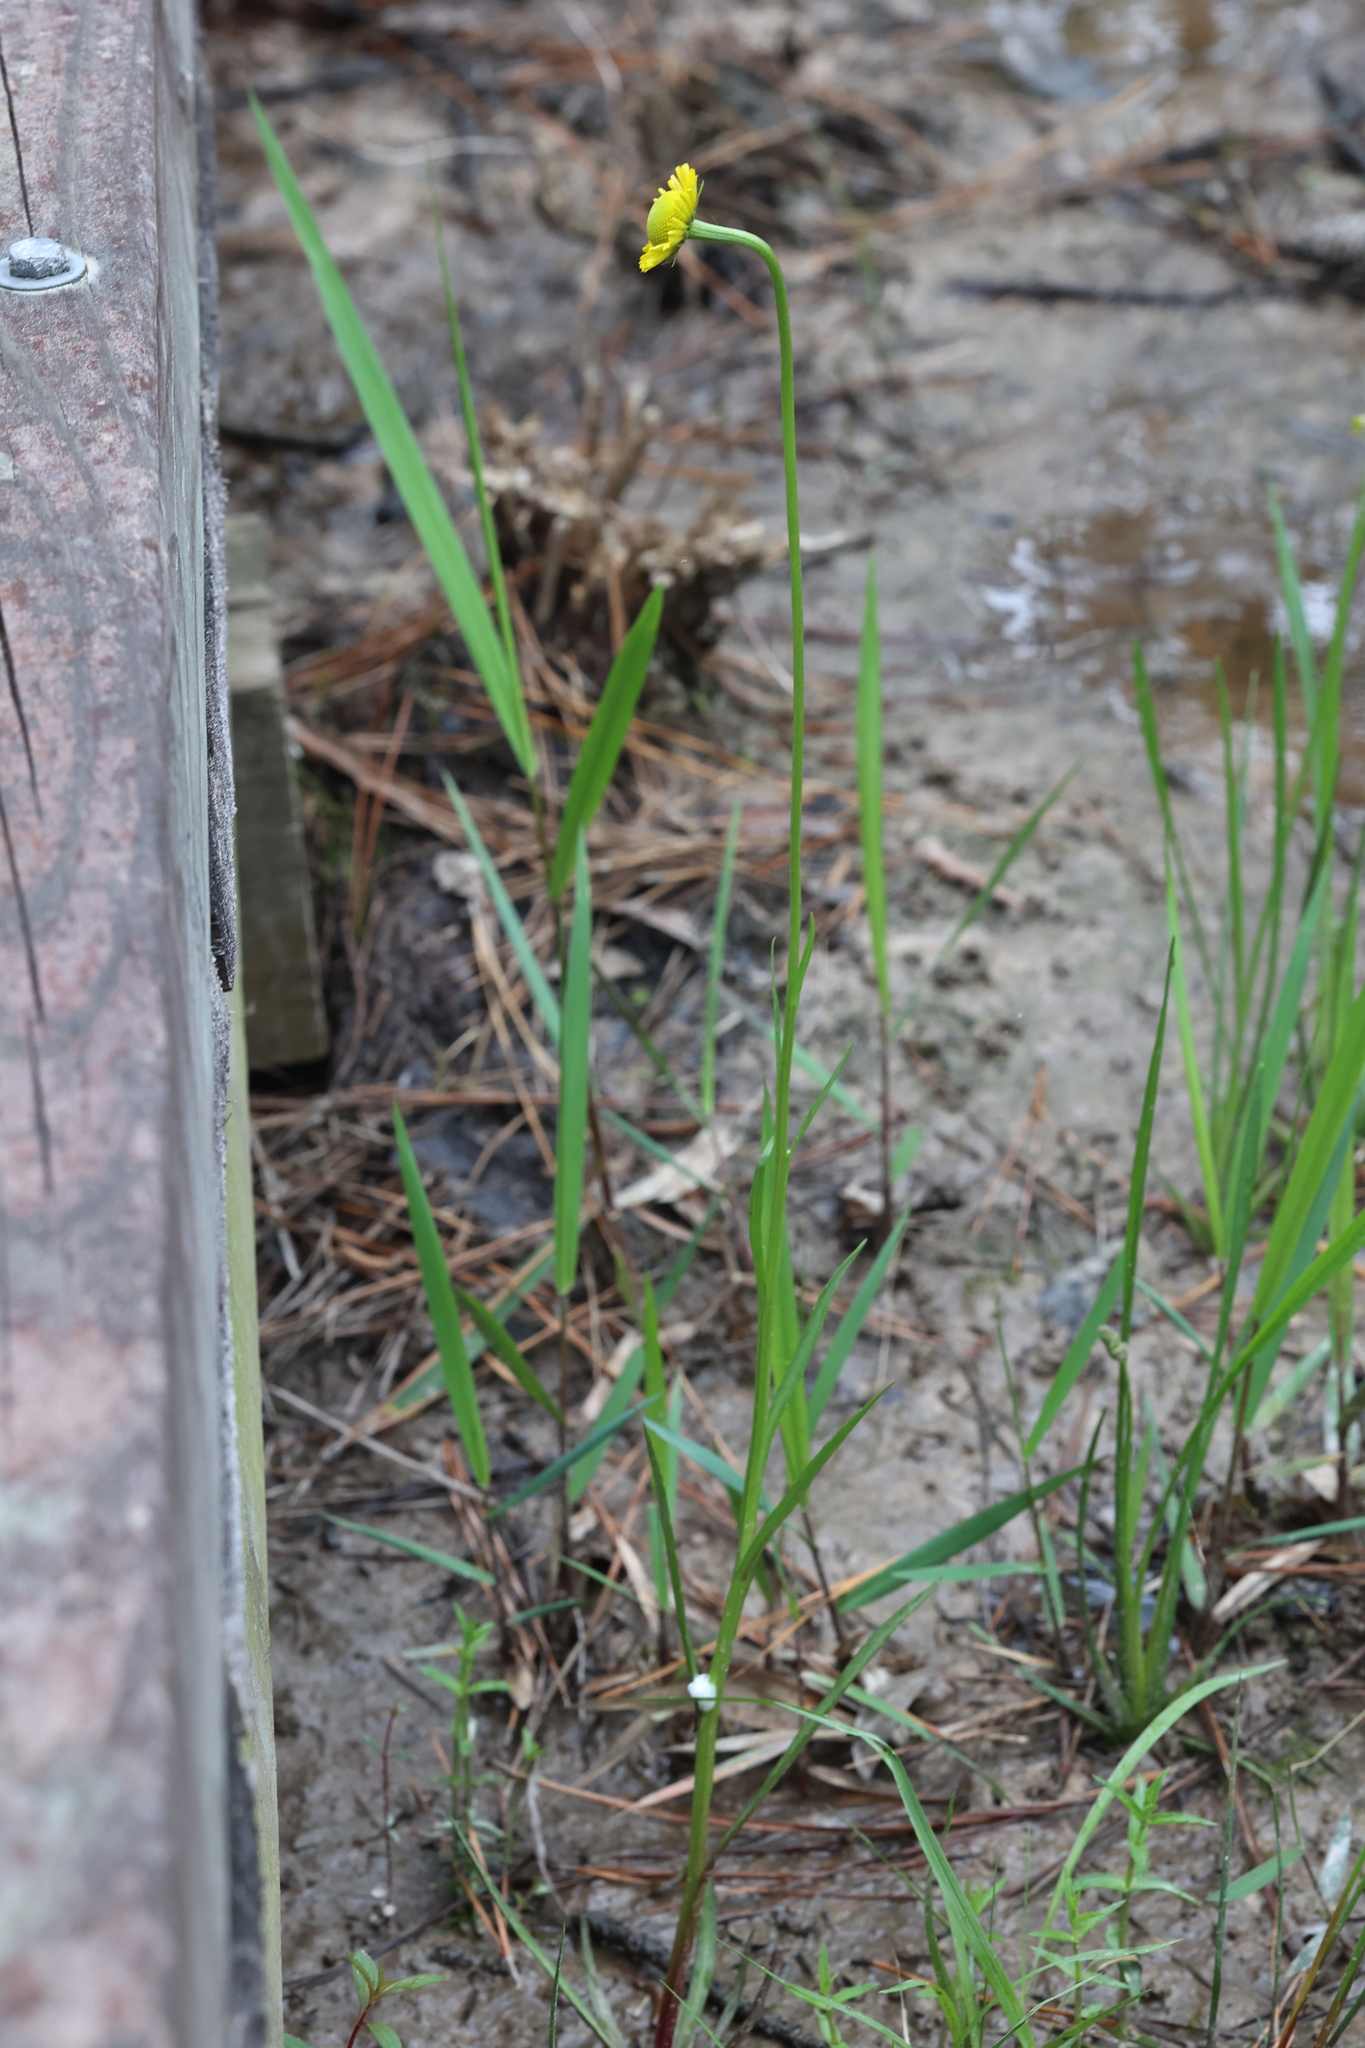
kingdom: Plantae
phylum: Tracheophyta
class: Magnoliopsida
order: Asterales
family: Asteraceae
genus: Helenium
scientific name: Helenium drummondii
